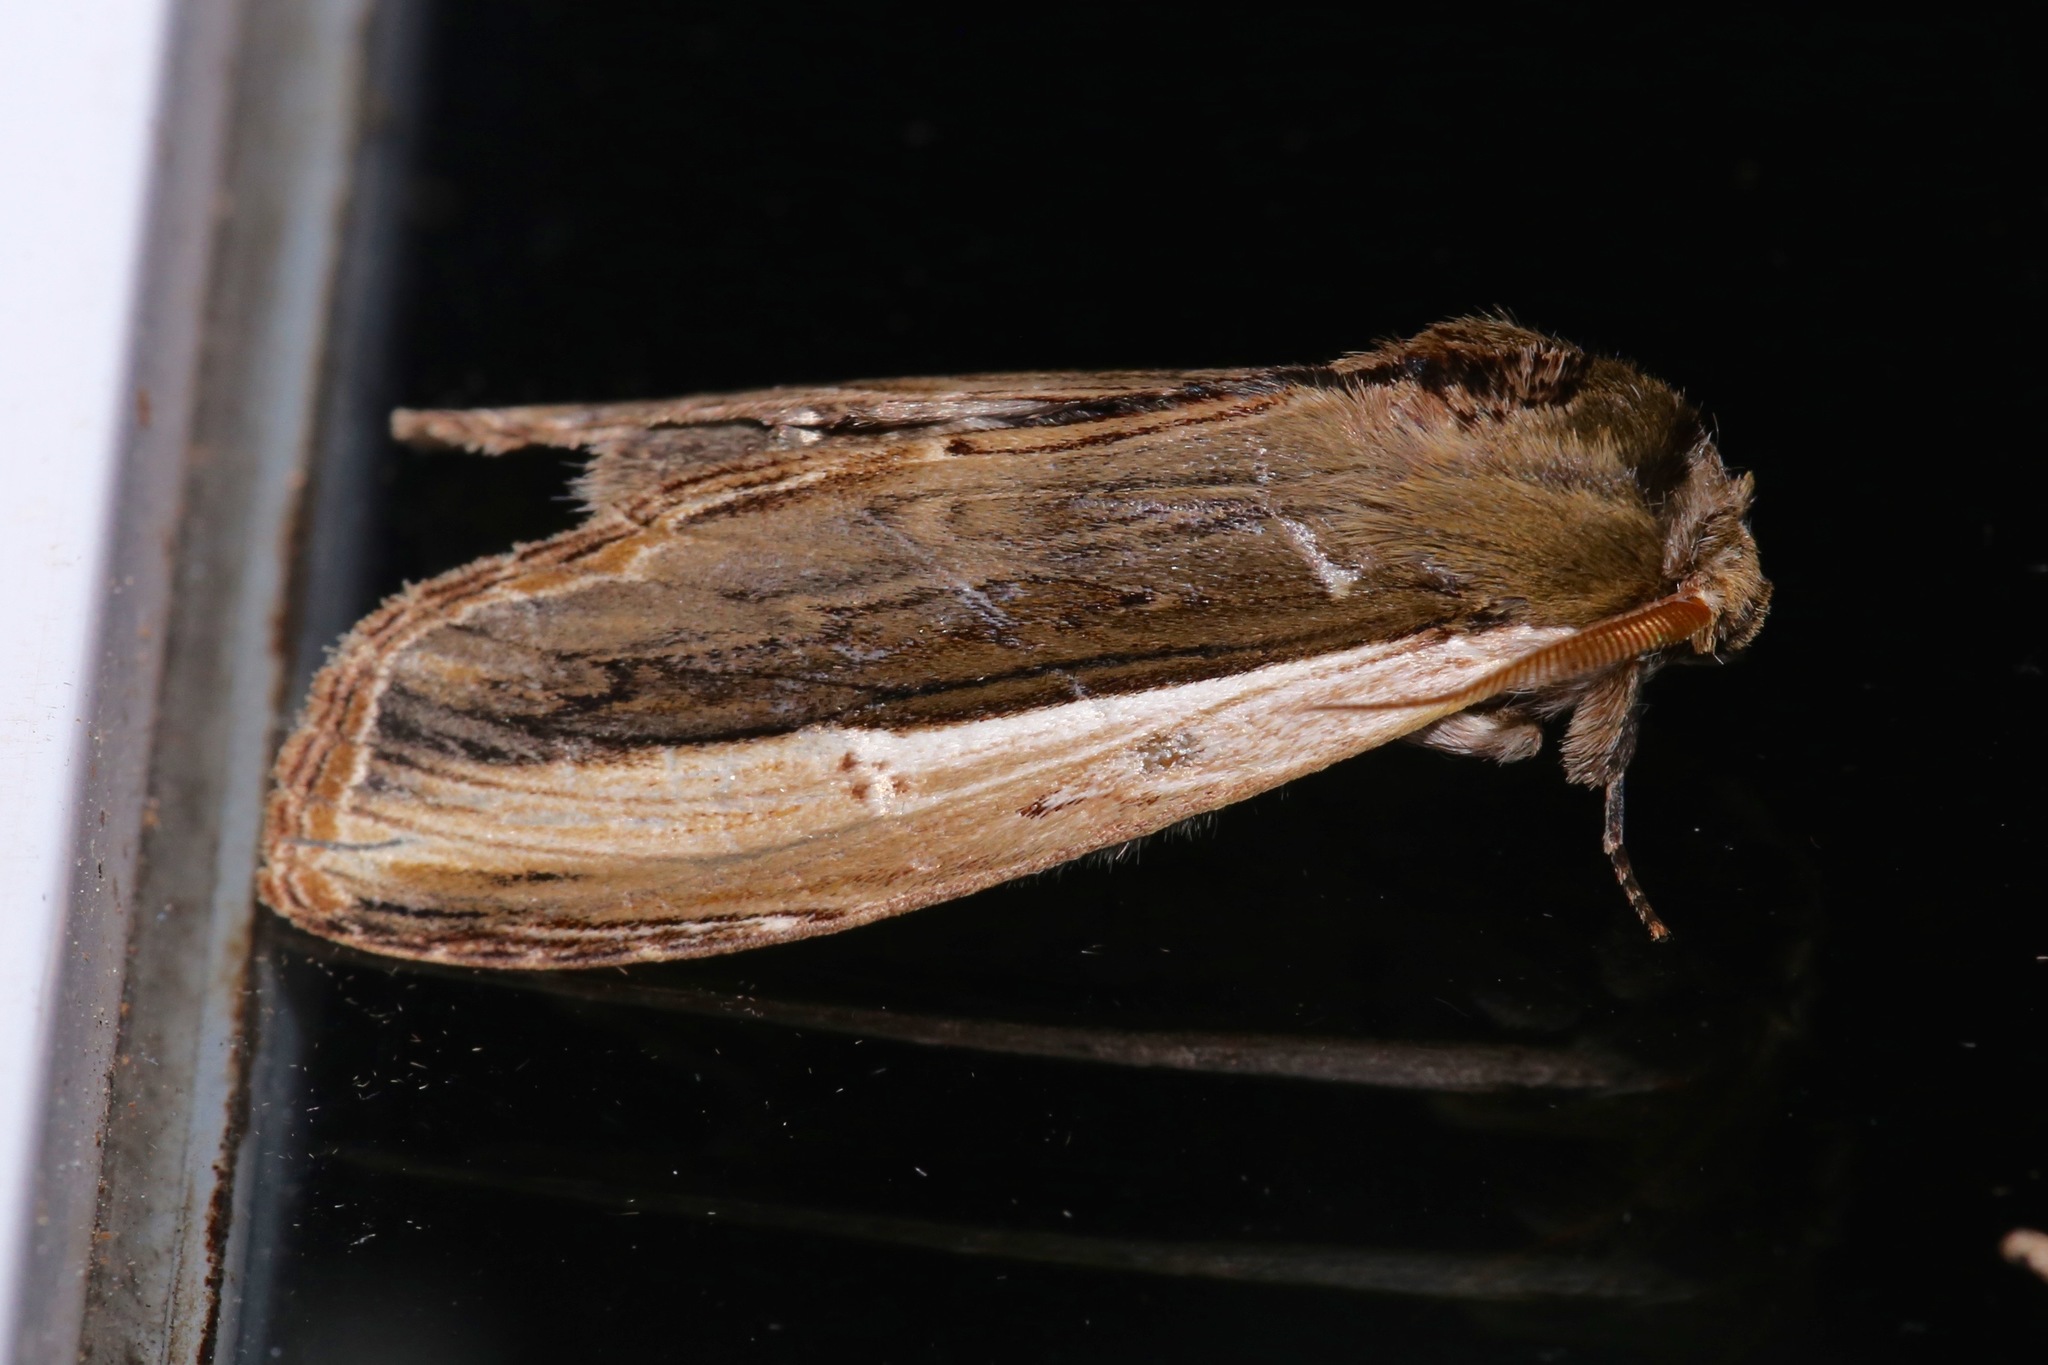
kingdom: Animalia
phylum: Arthropoda
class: Insecta
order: Lepidoptera
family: Notodontidae
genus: Truncaptera
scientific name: Truncaptera
